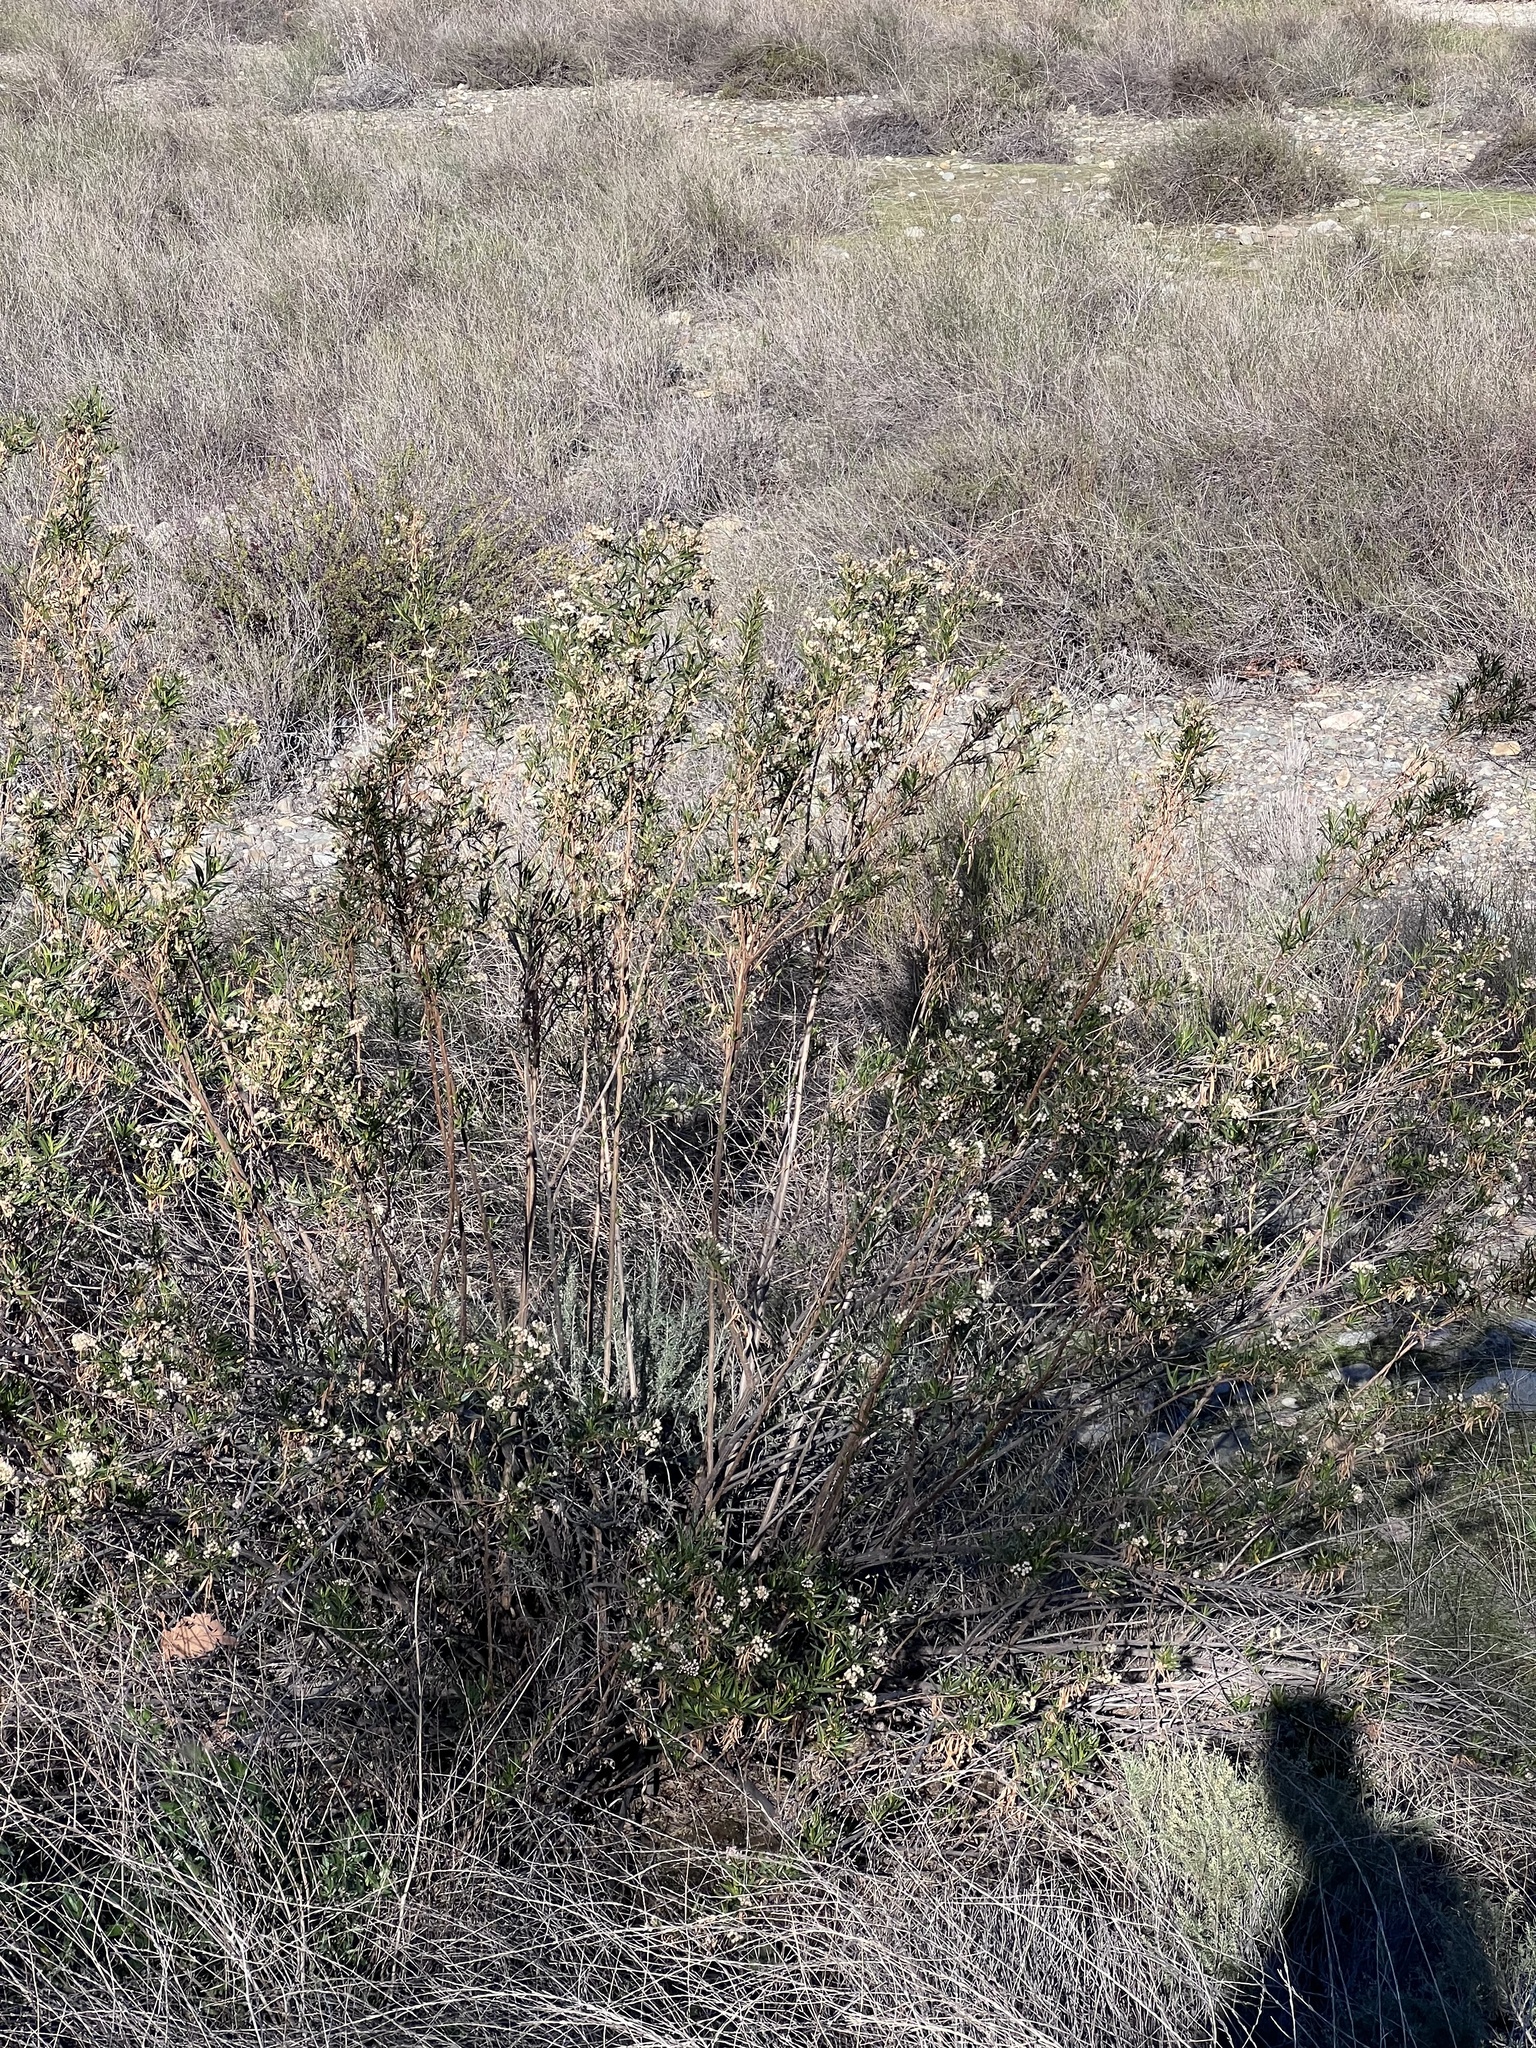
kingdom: Plantae
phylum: Tracheophyta
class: Magnoliopsida
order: Asterales
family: Asteraceae
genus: Baccharis
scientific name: Baccharis salicifolia
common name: Sticky baccharis
